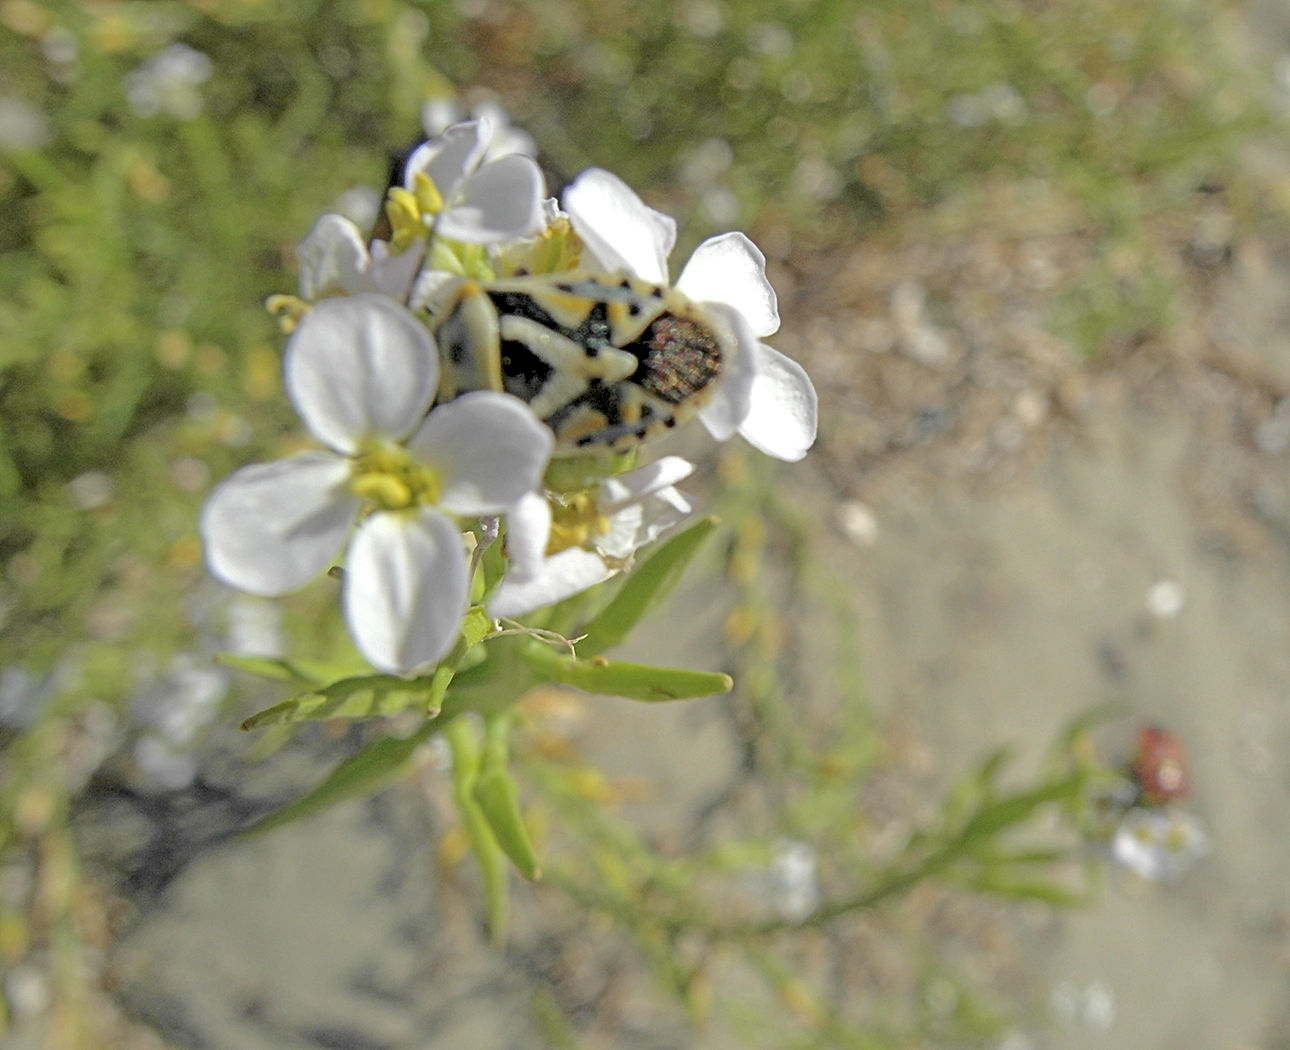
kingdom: Animalia
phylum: Arthropoda
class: Insecta
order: Hemiptera
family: Pentatomidae
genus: Eurydema
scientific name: Eurydema ornata
